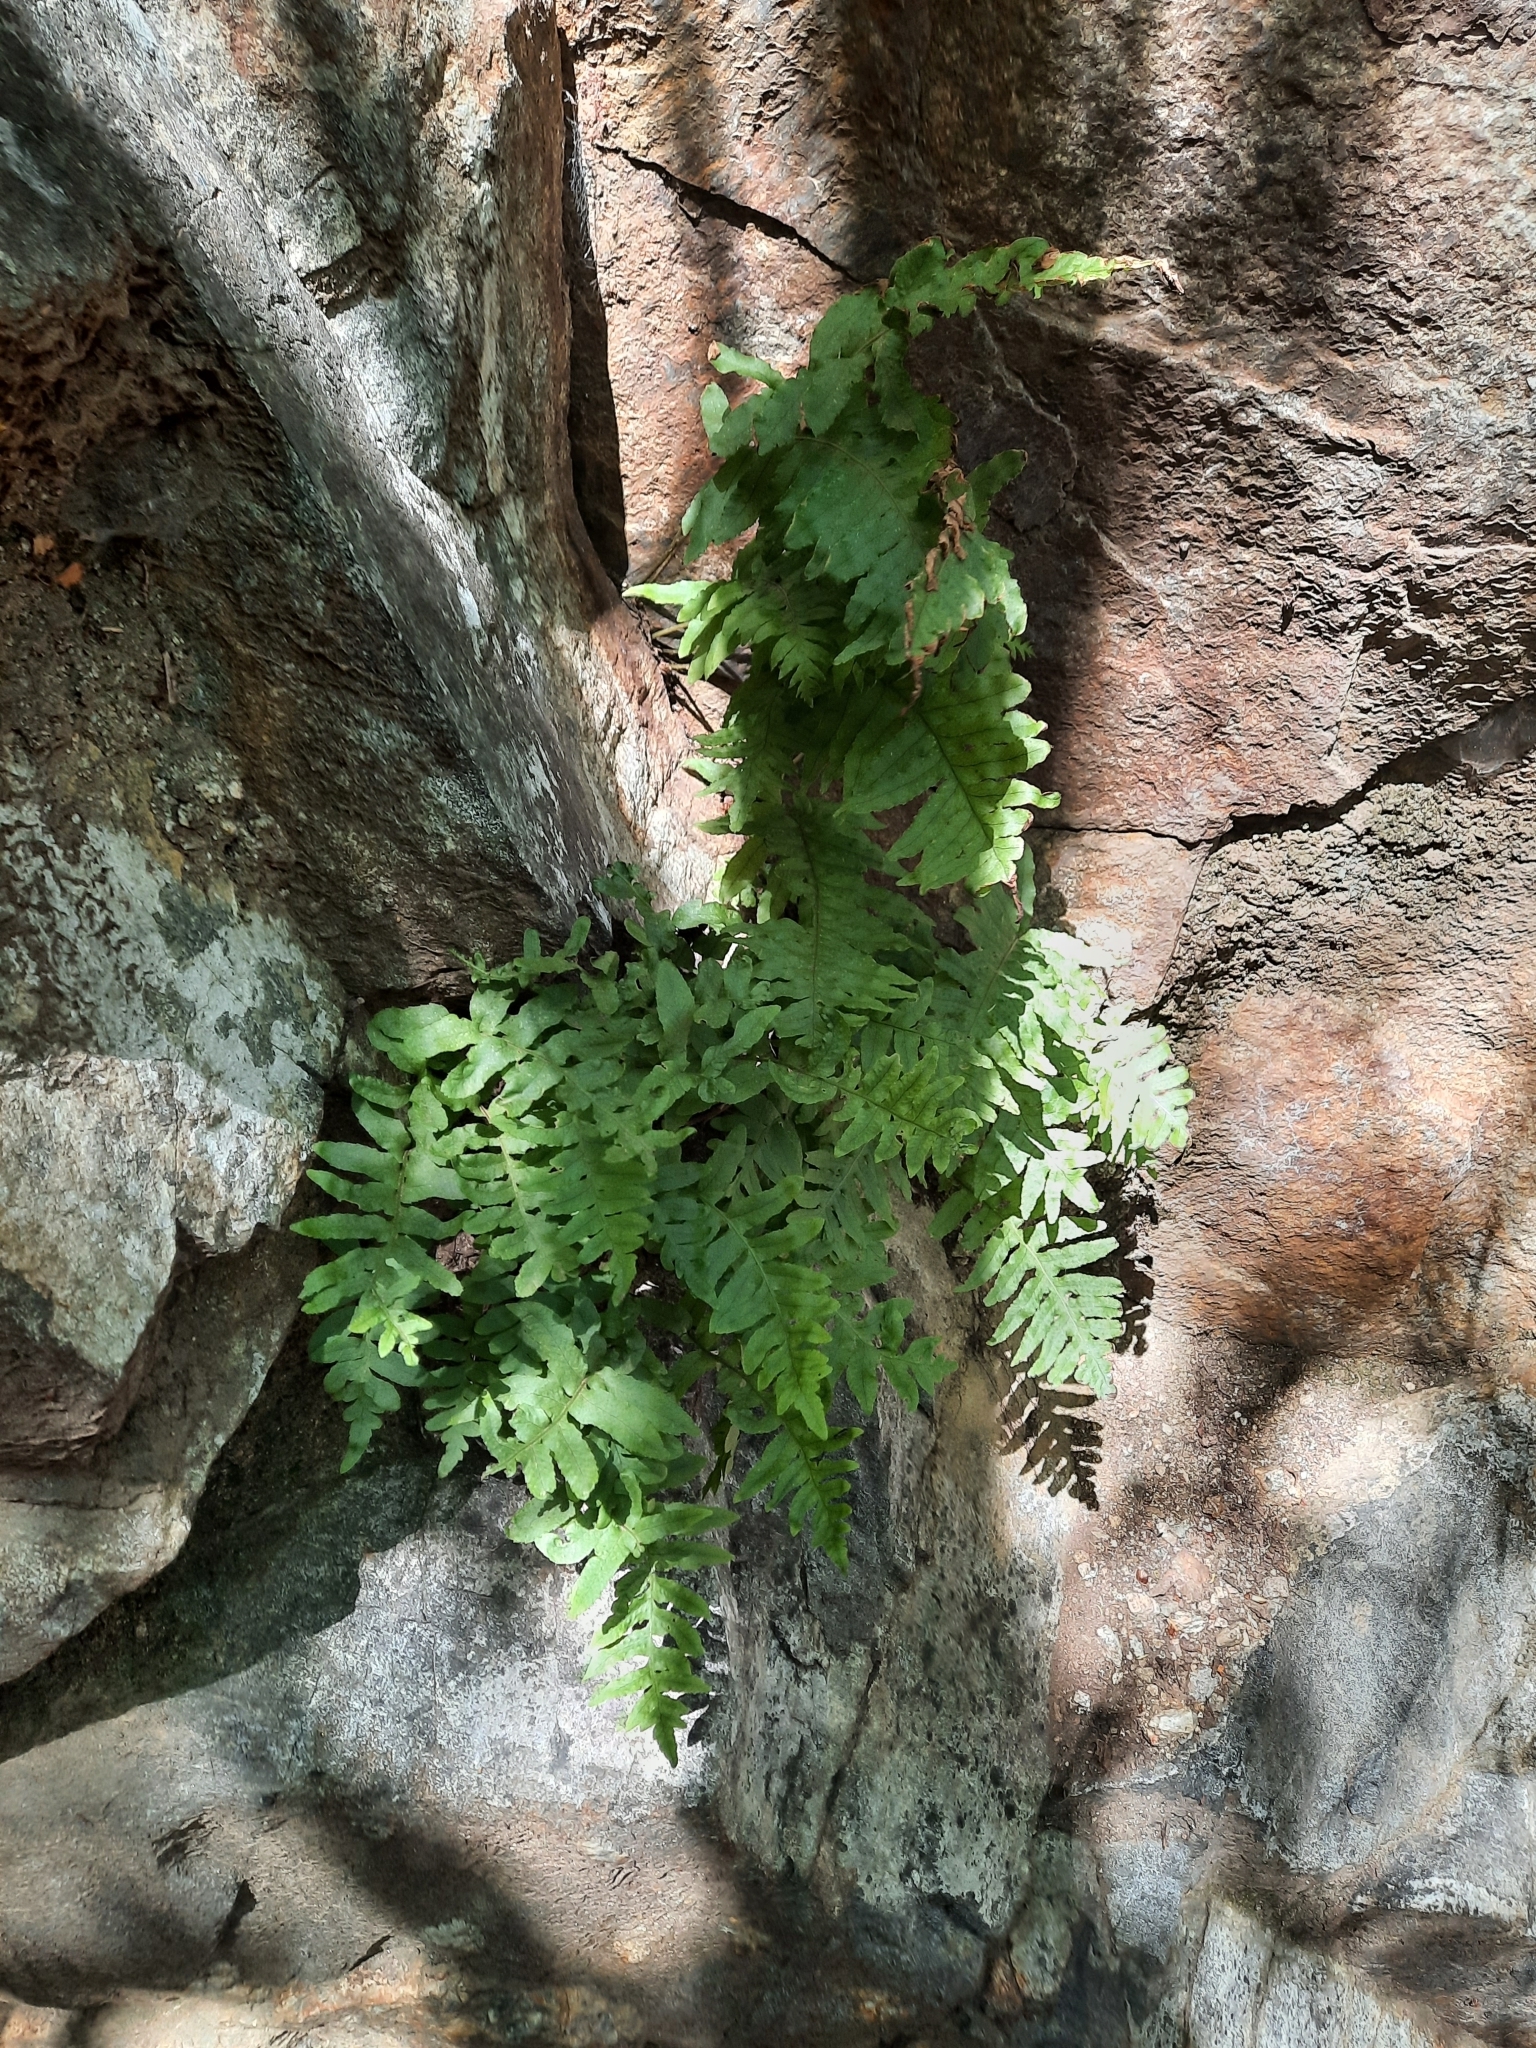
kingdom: Plantae
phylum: Tracheophyta
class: Polypodiopsida
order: Polypodiales
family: Polypodiaceae
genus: Polypodium
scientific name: Polypodium californicum
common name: California polypody
